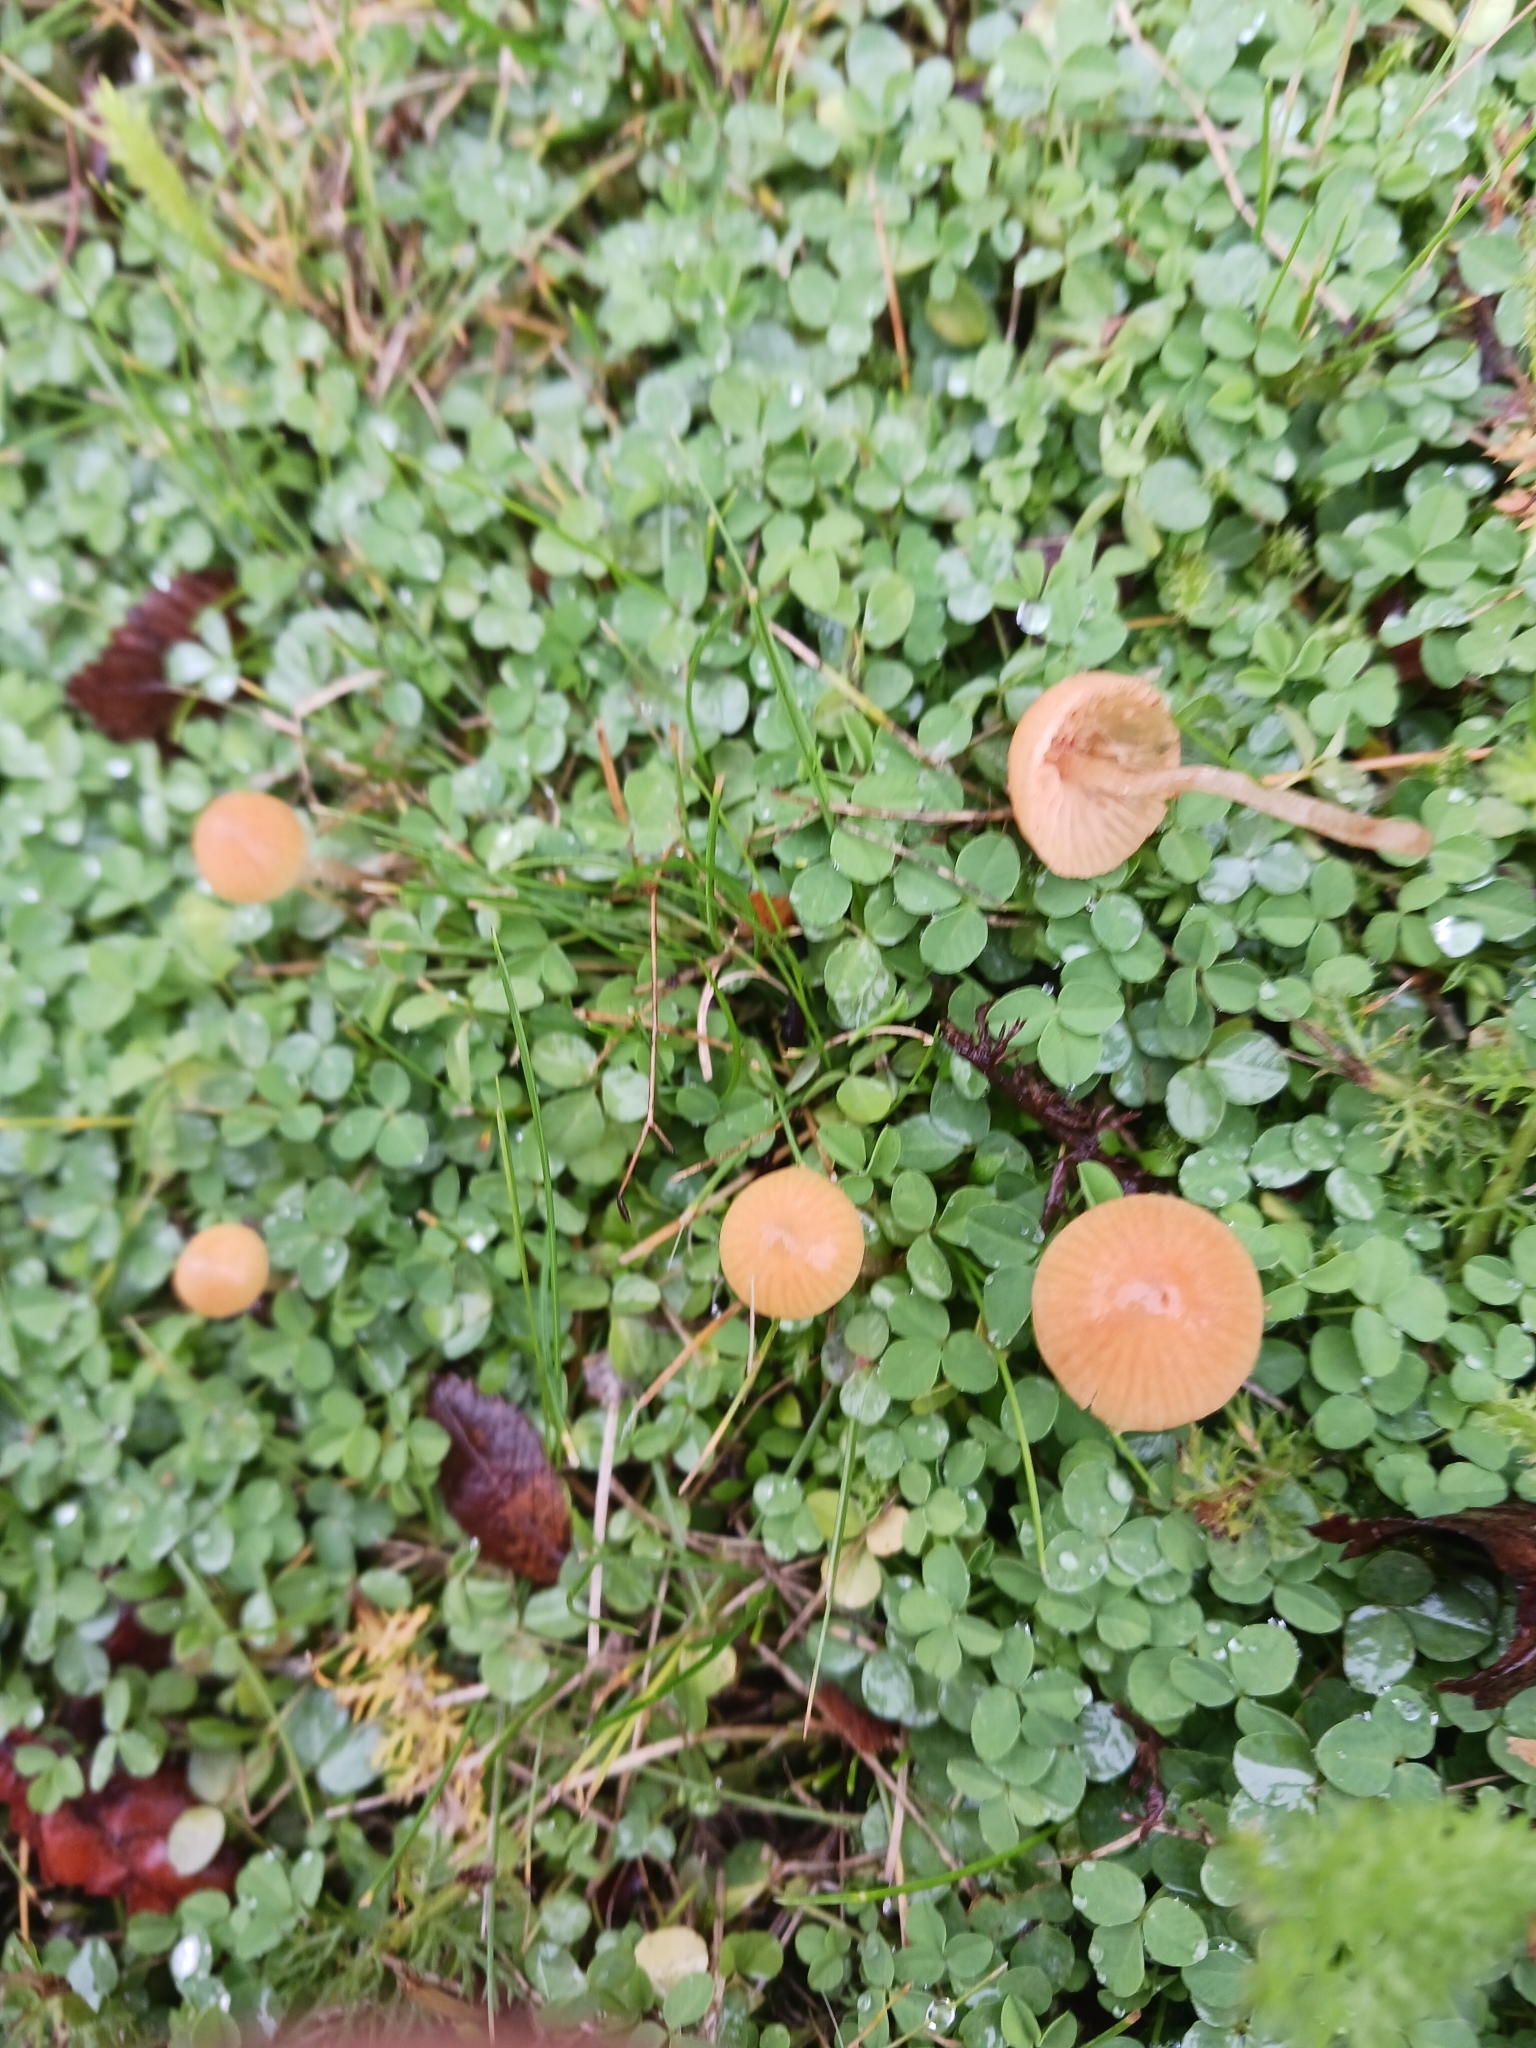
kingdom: Fungi
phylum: Basidiomycota
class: Agaricomycetes
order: Agaricales
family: Hymenogastraceae
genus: Galerina
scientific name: Galerina graminea
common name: Turf bell
